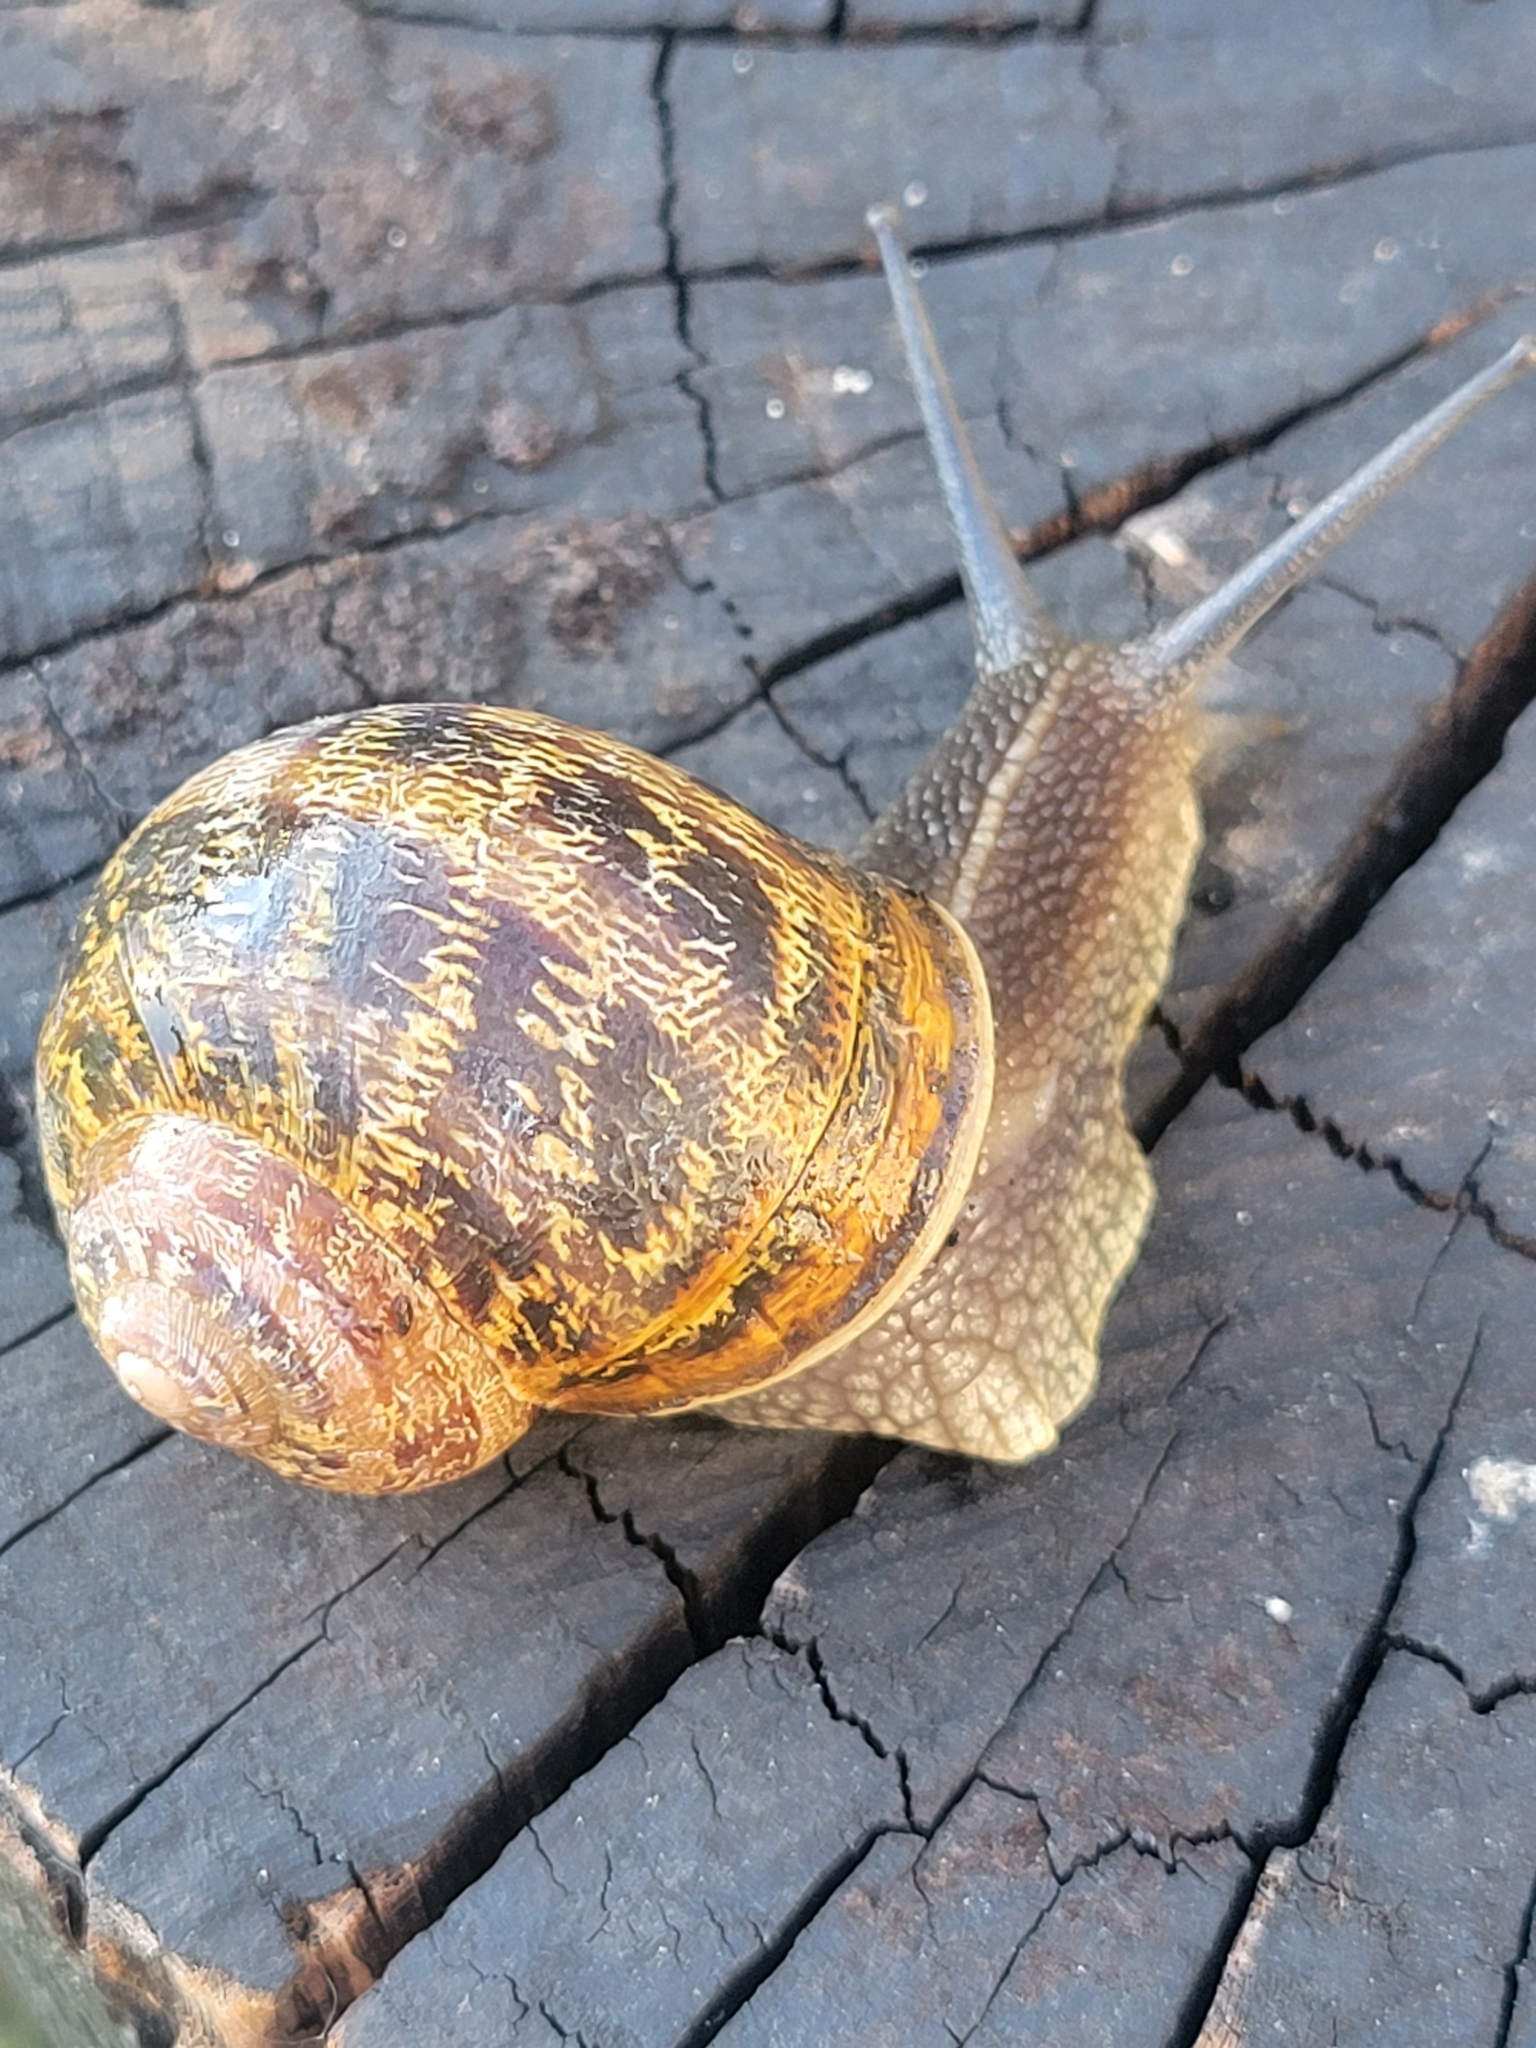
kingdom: Animalia
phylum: Mollusca
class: Gastropoda
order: Stylommatophora
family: Helicidae
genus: Cornu
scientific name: Cornu aspersum
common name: Brown garden snail
